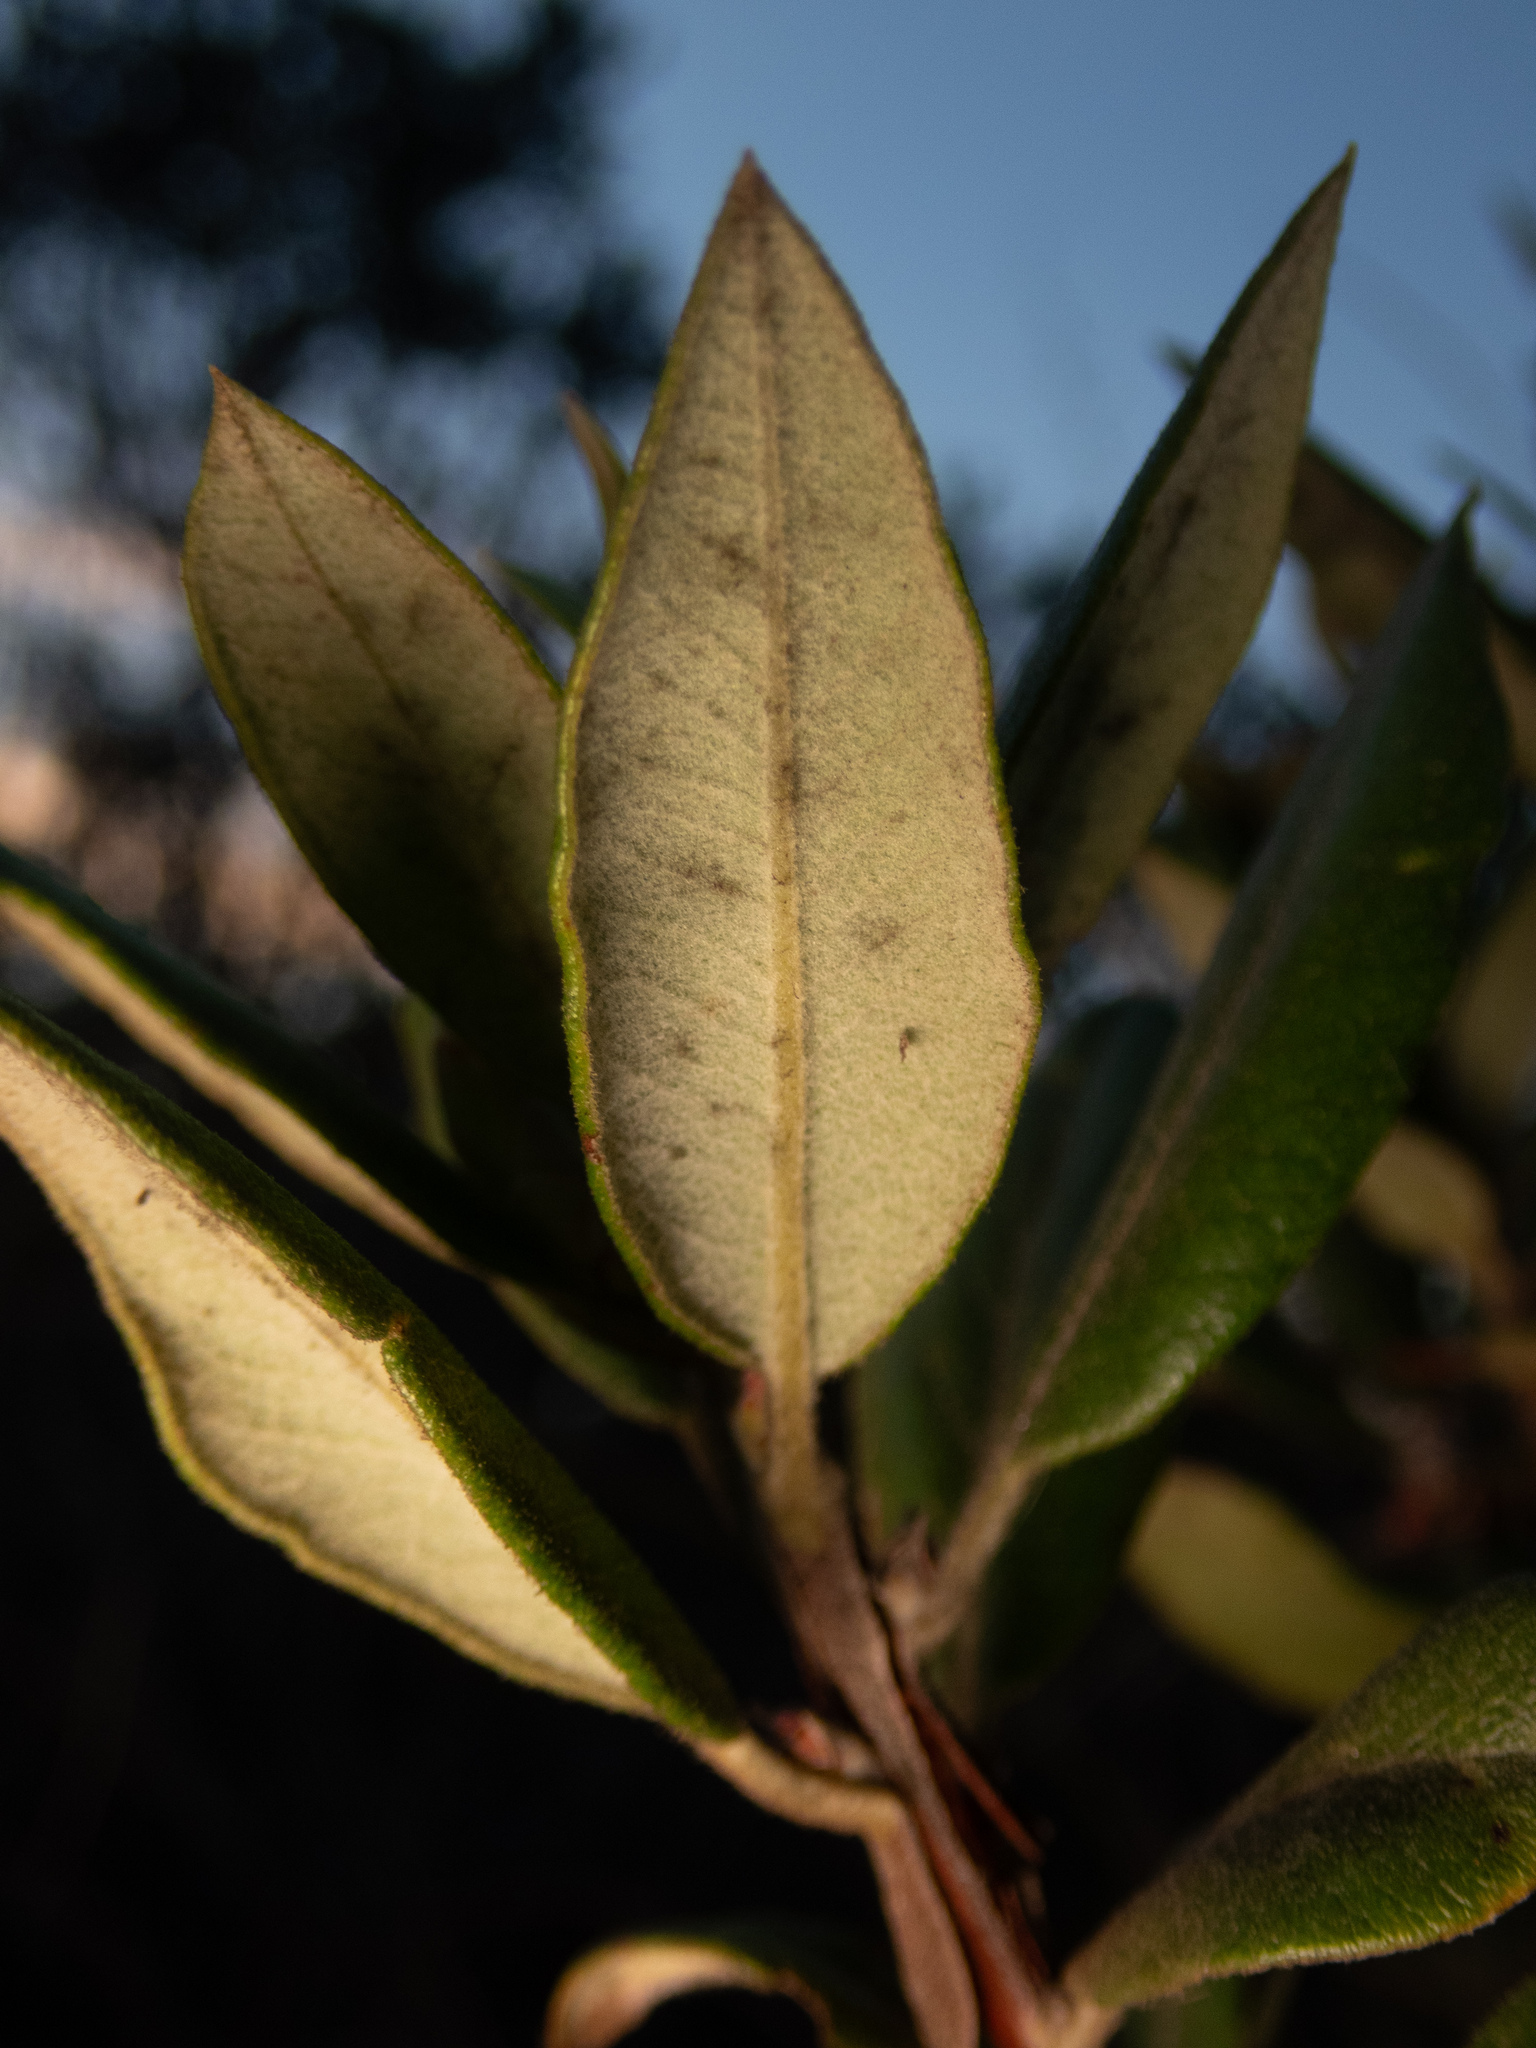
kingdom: Plantae
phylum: Tracheophyta
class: Magnoliopsida
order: Ericales
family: Ericaceae
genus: Arctostaphylos
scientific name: Arctostaphylos bicolor
